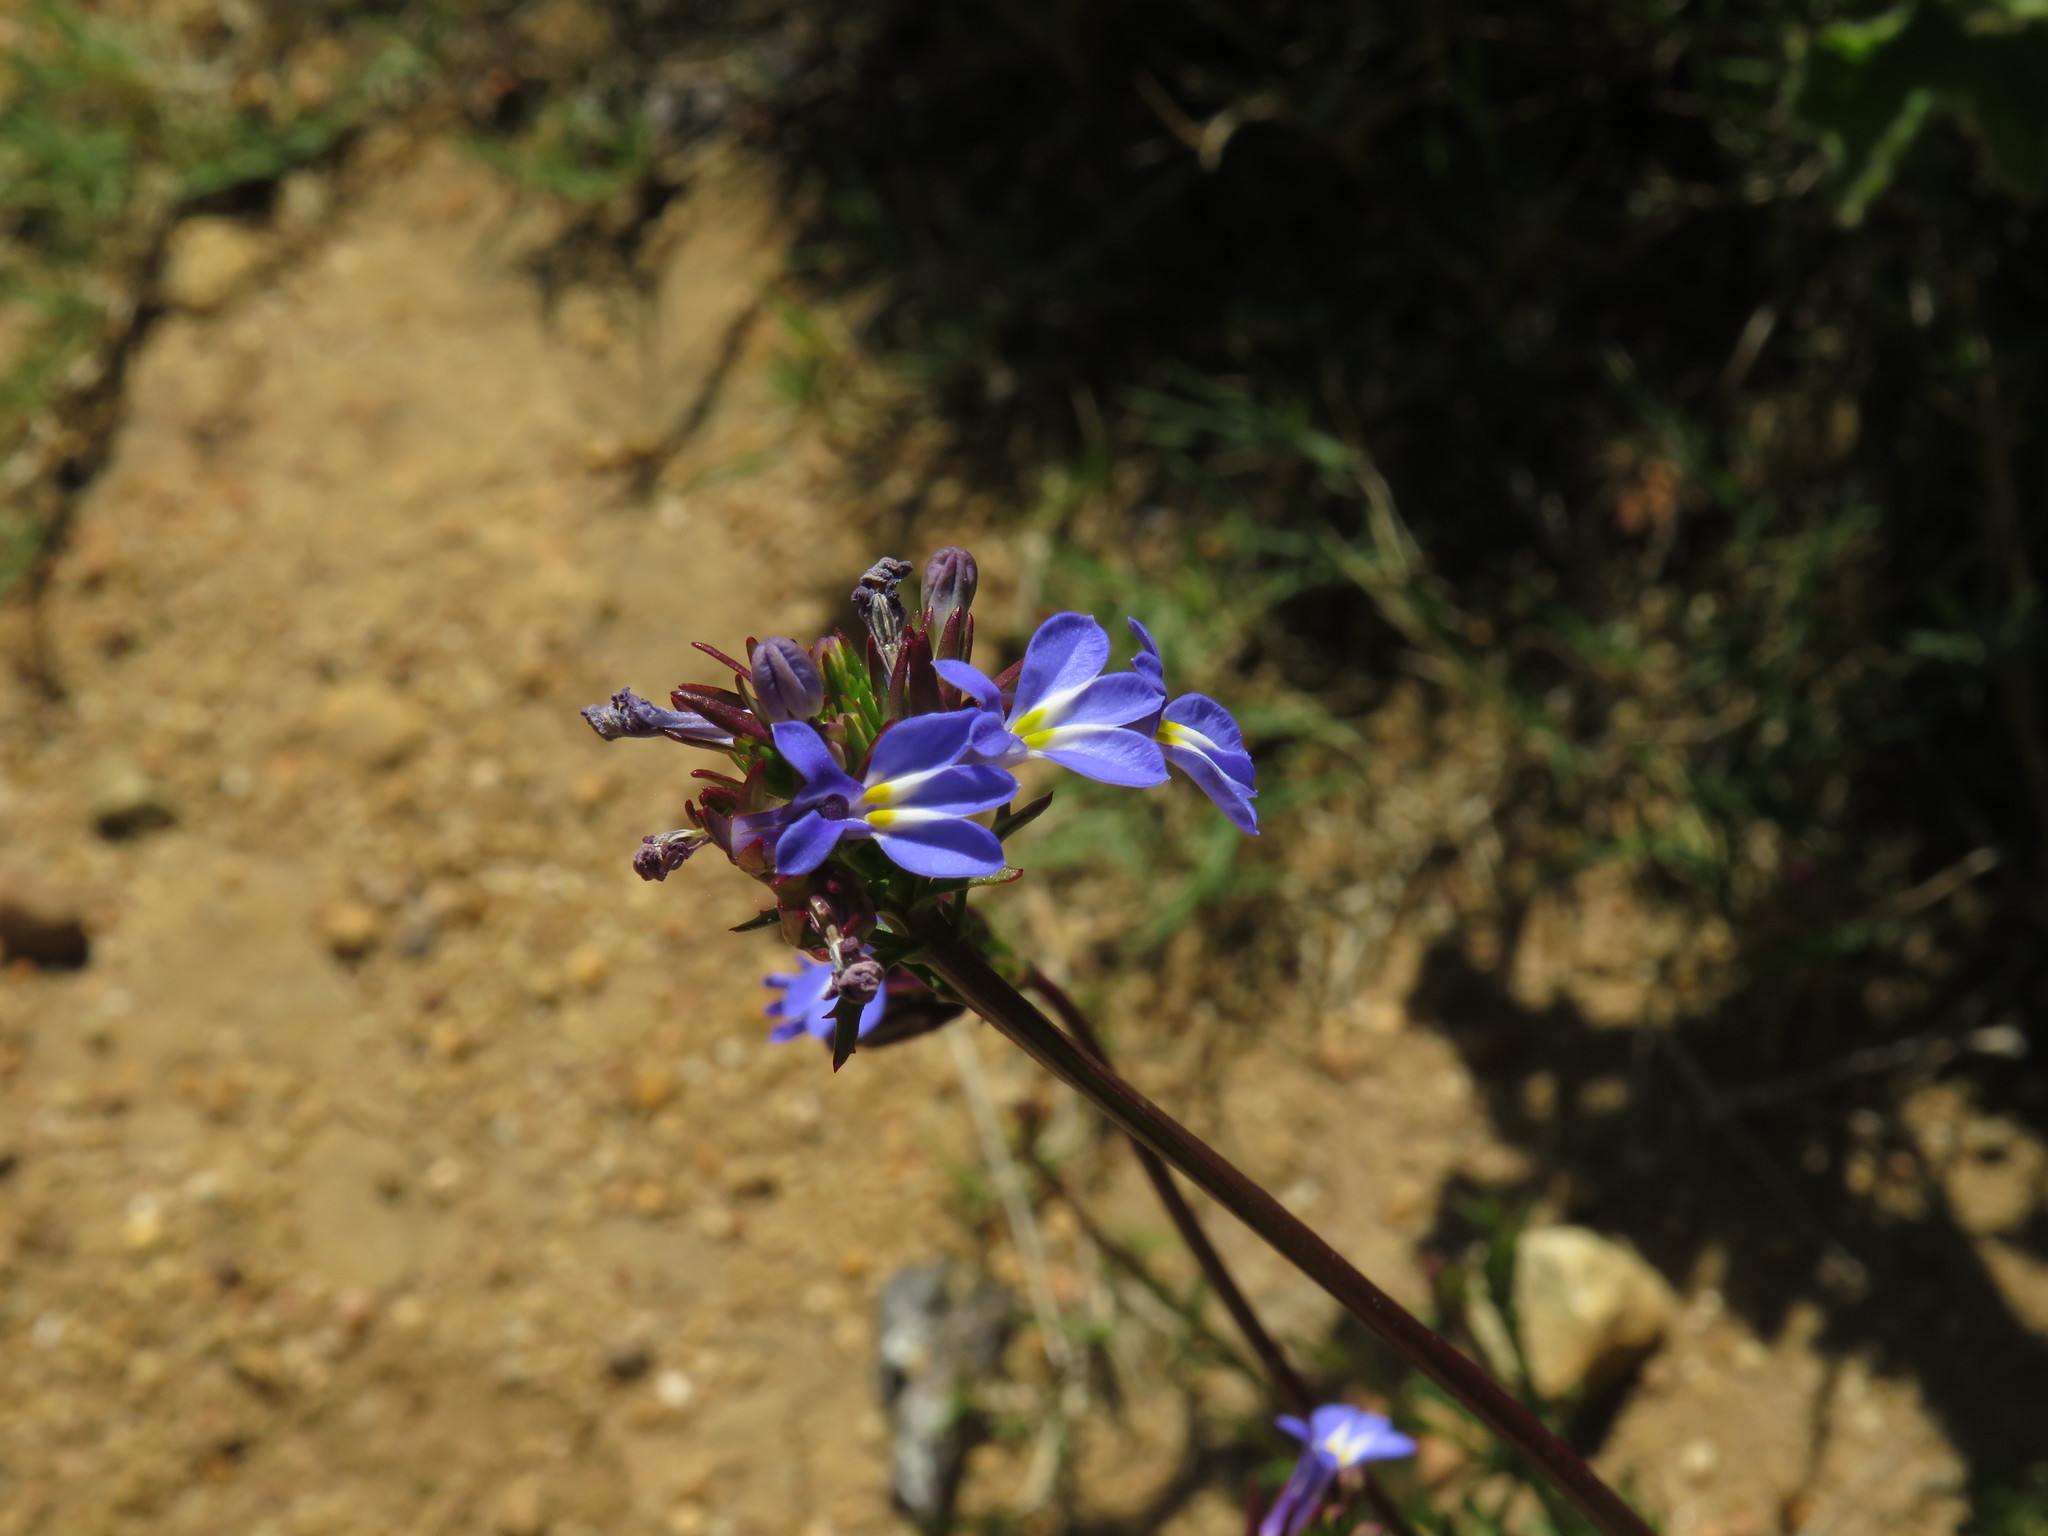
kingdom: Plantae
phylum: Tracheophyta
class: Magnoliopsida
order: Asterales
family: Campanulaceae
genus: Lobelia
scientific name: Lobelia comosa
